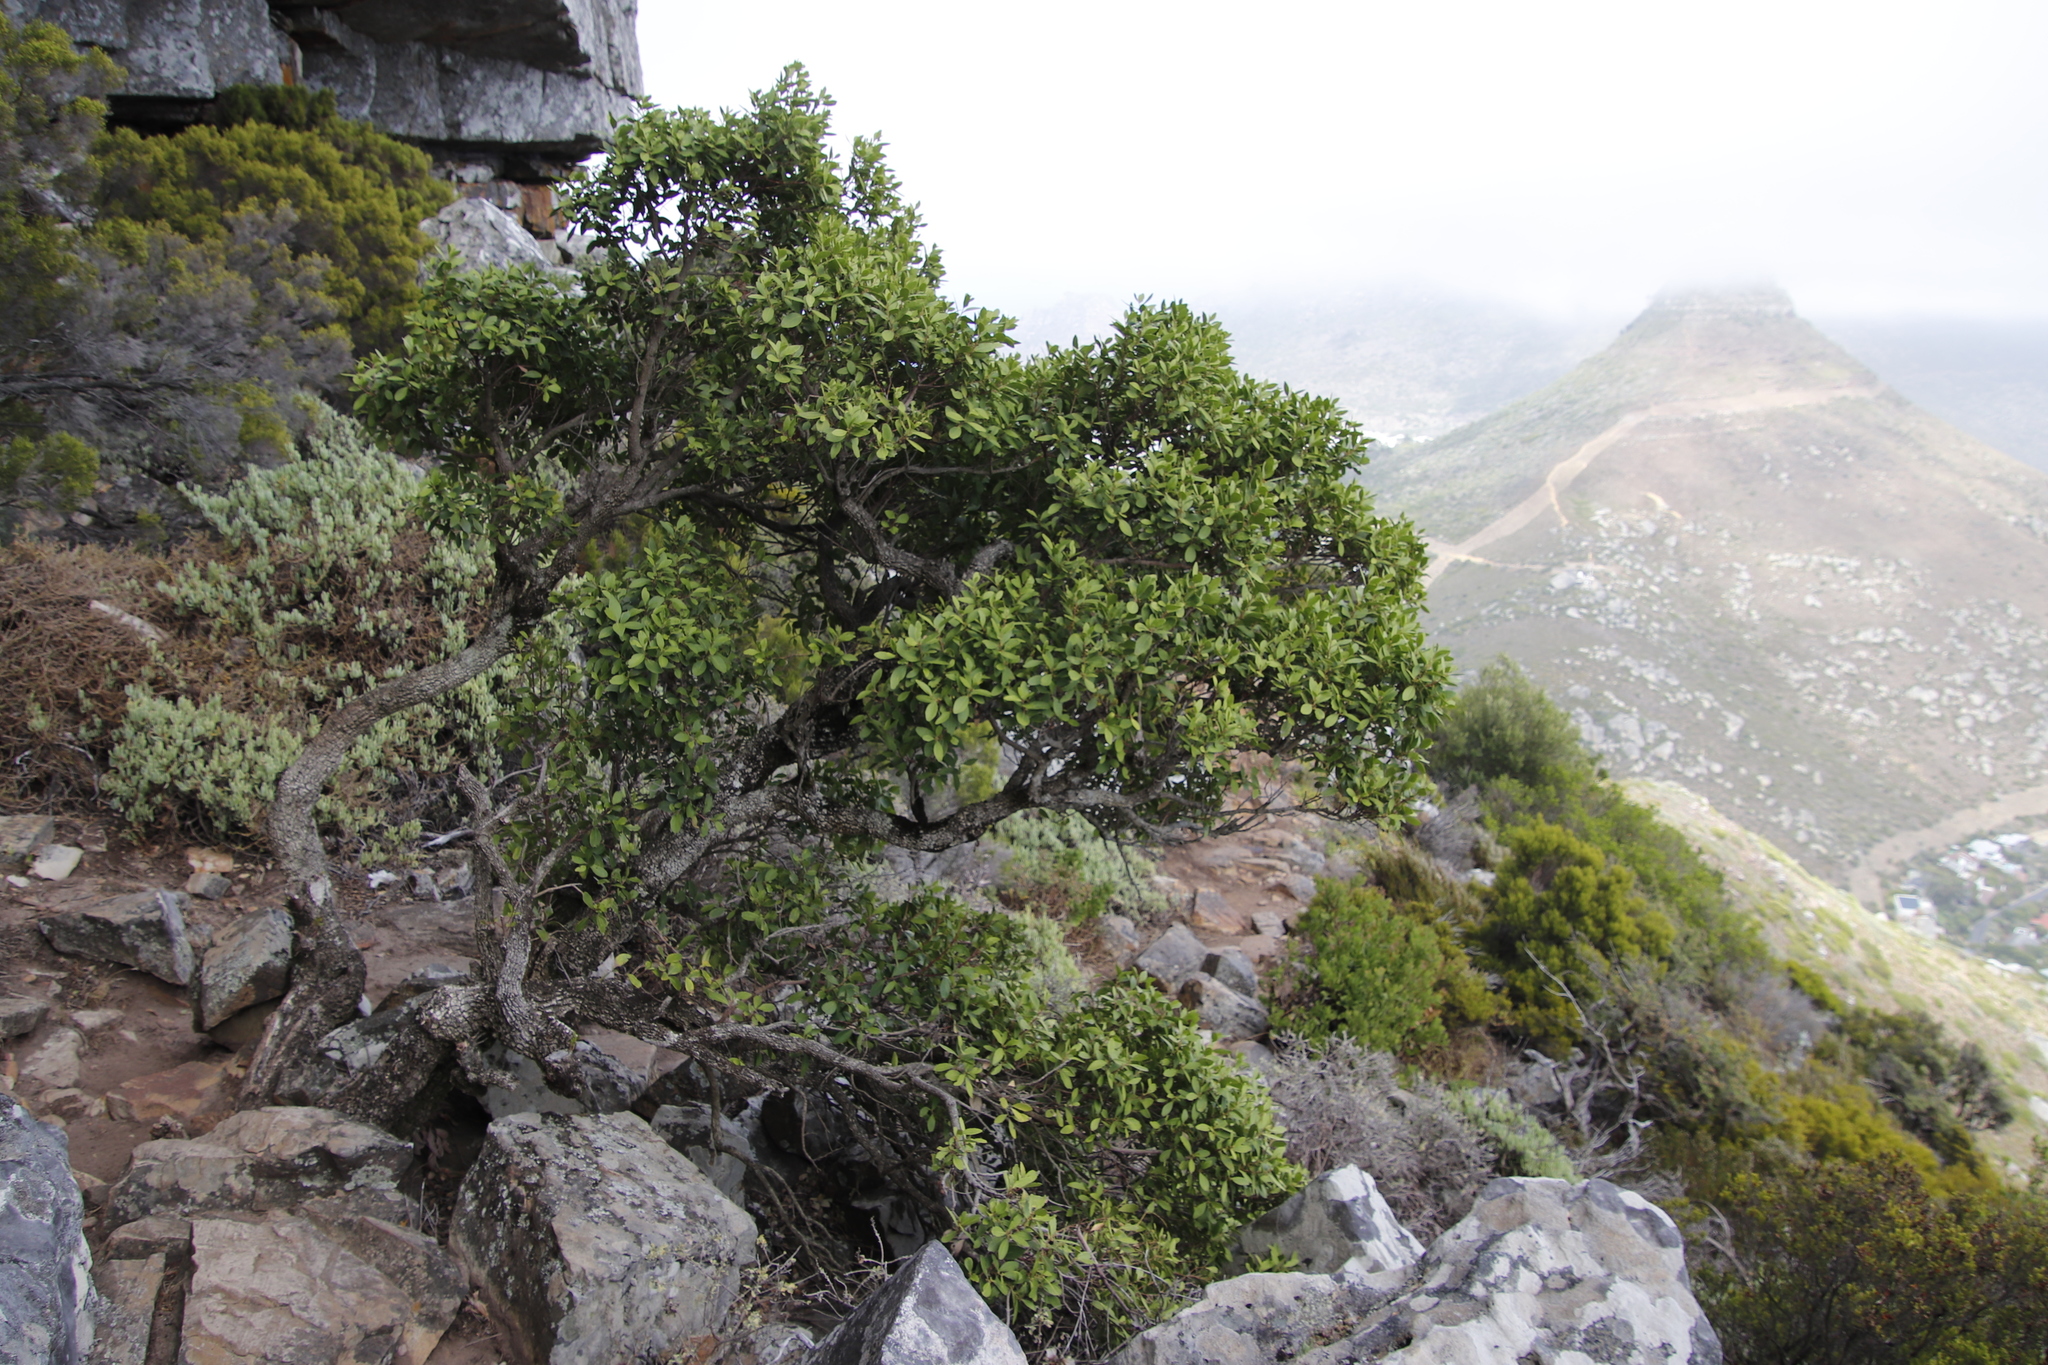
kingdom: Plantae
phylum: Tracheophyta
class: Magnoliopsida
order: Celastrales
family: Celastraceae
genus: Gymnosporia
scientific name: Gymnosporia laurina
